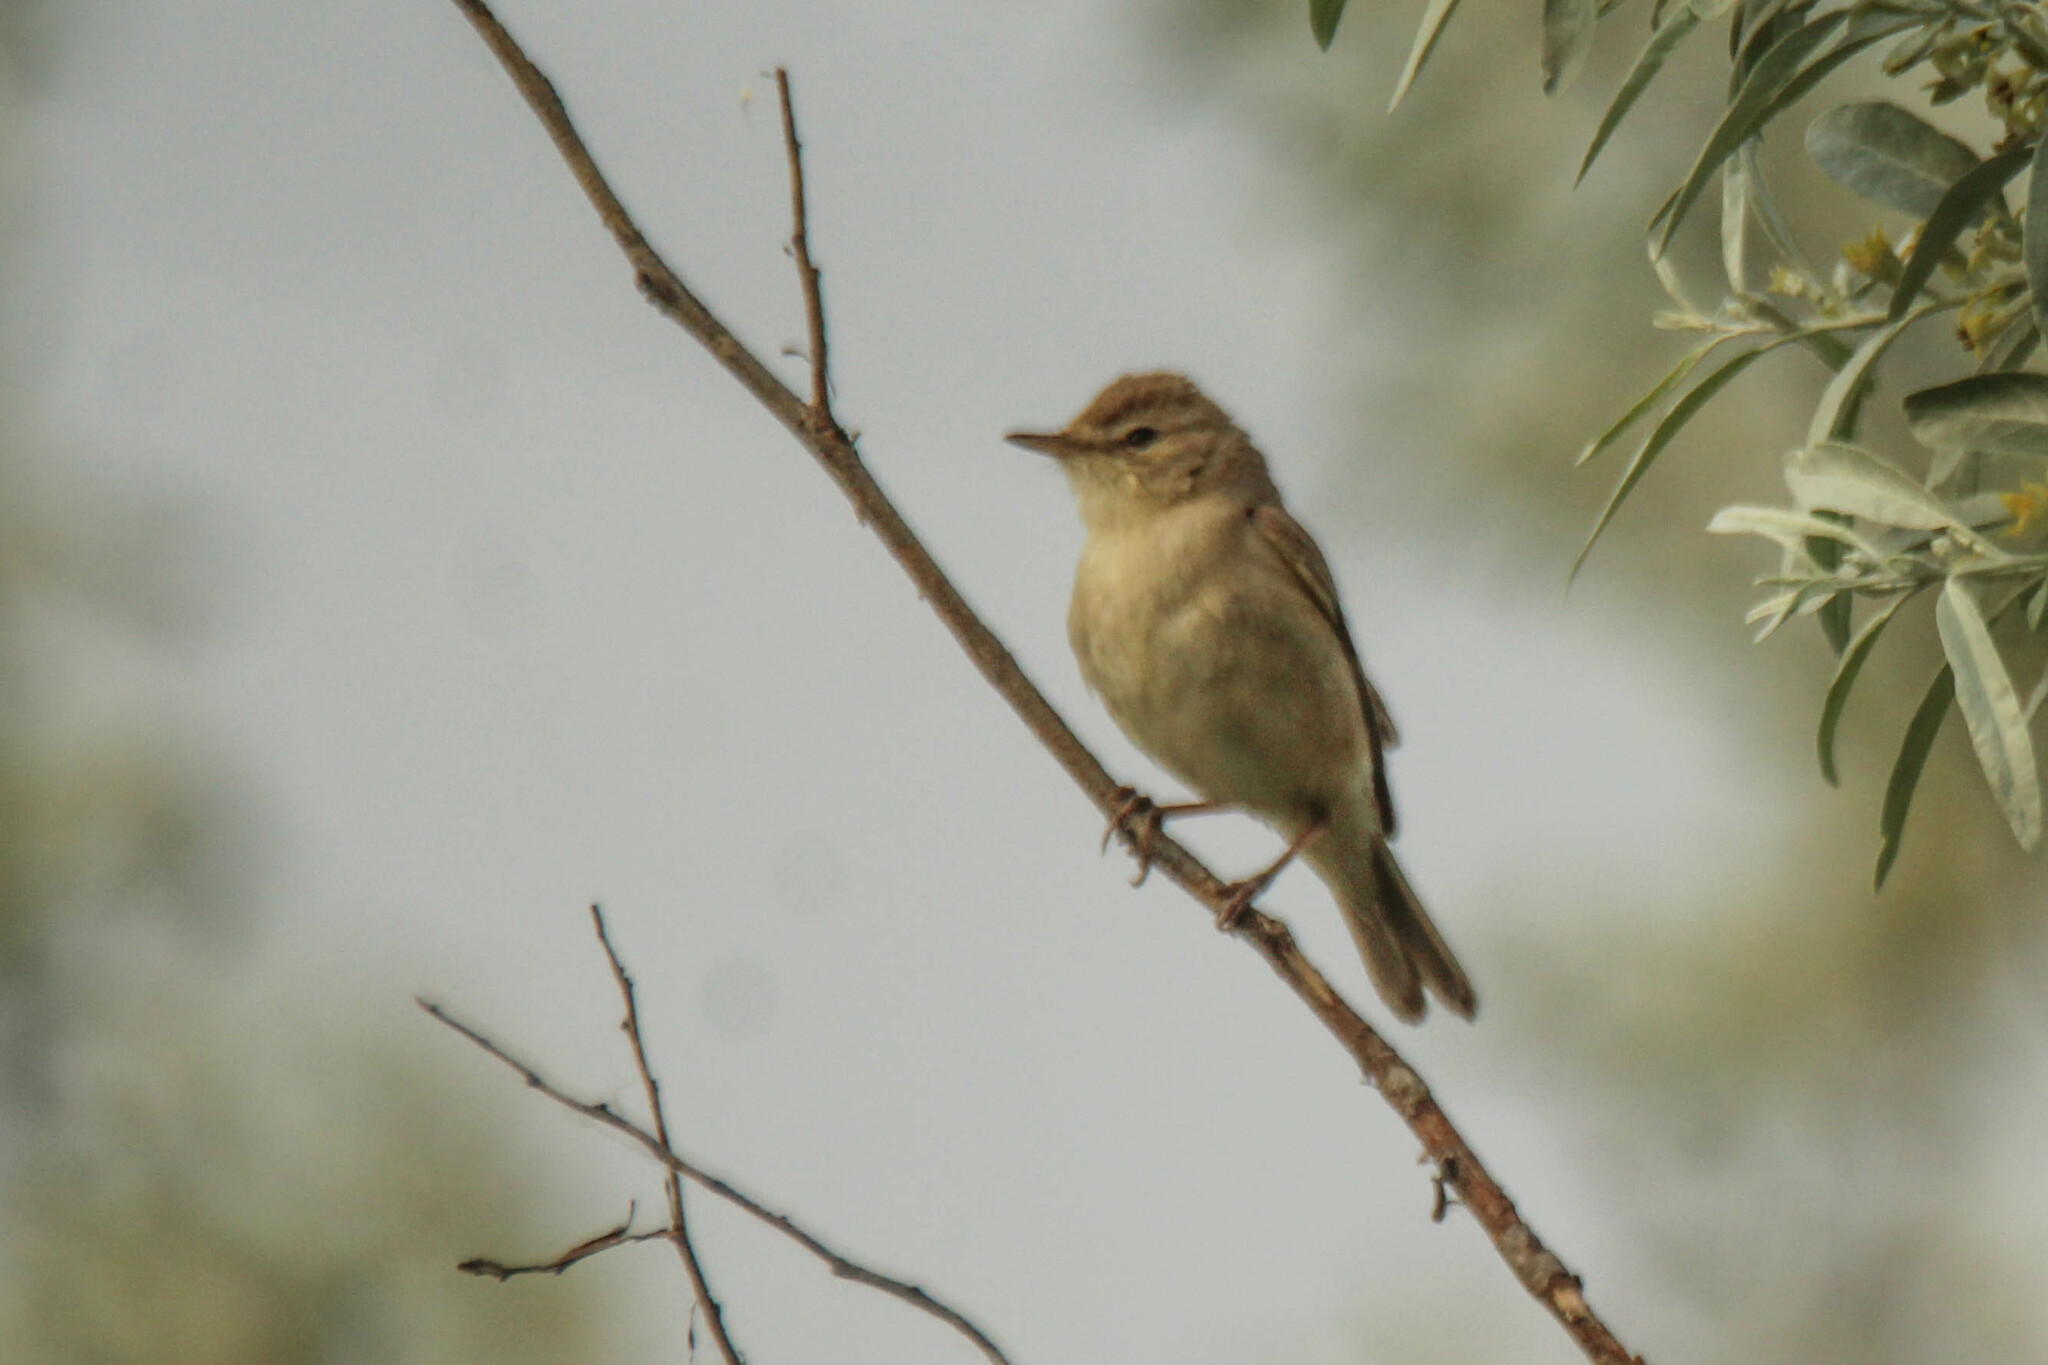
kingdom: Animalia
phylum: Chordata
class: Aves
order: Passeriformes
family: Acrocephalidae
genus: Iduna
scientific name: Iduna caligata
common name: Booted warbler
